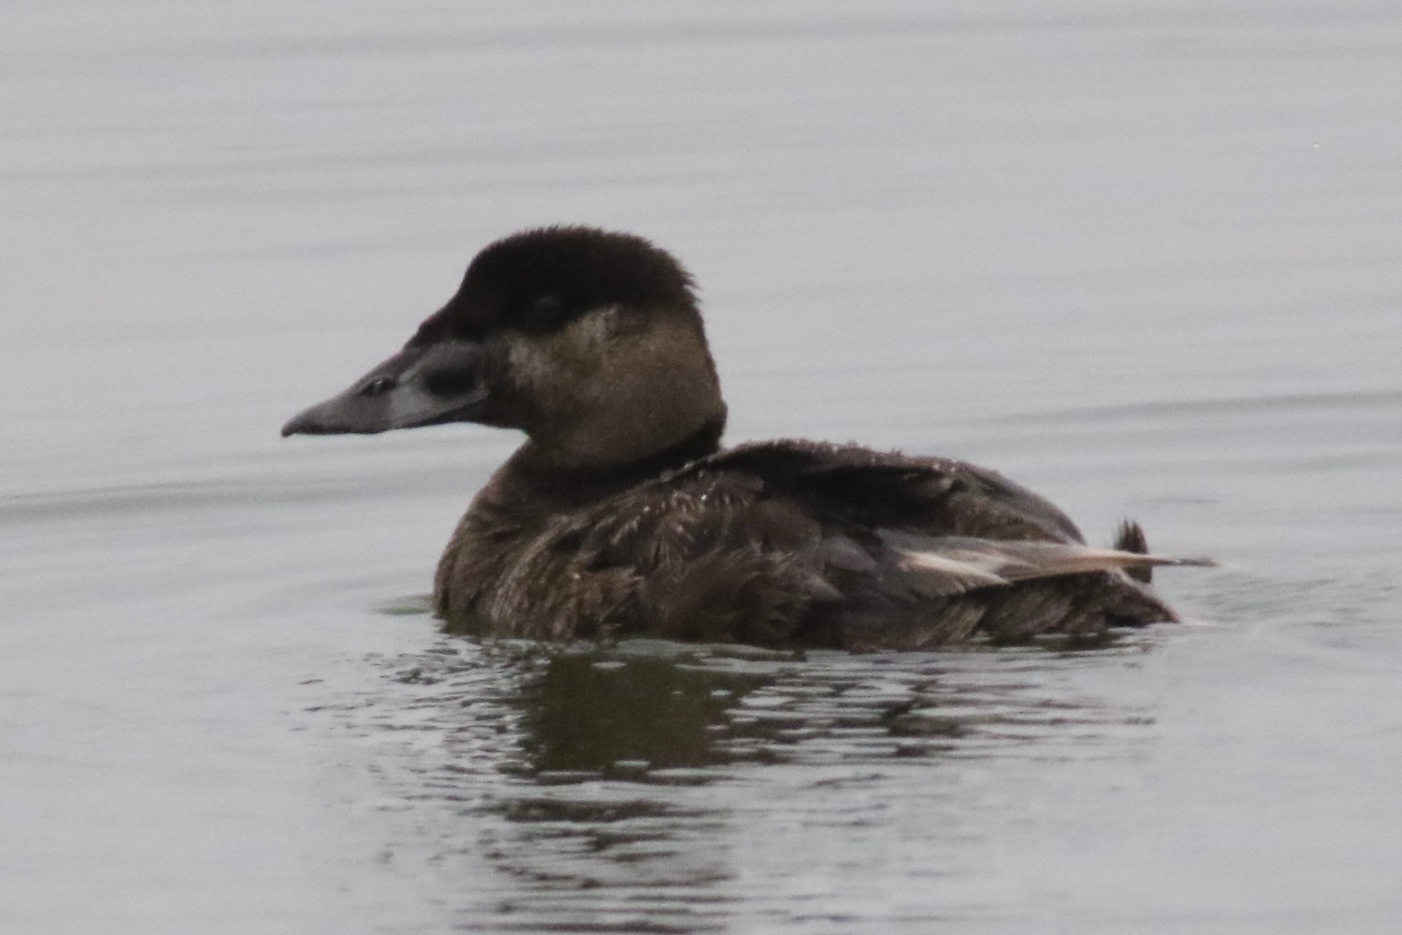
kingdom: Animalia
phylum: Chordata
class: Aves
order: Anseriformes
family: Anatidae
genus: Melanitta
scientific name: Melanitta perspicillata
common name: Surf scoter
